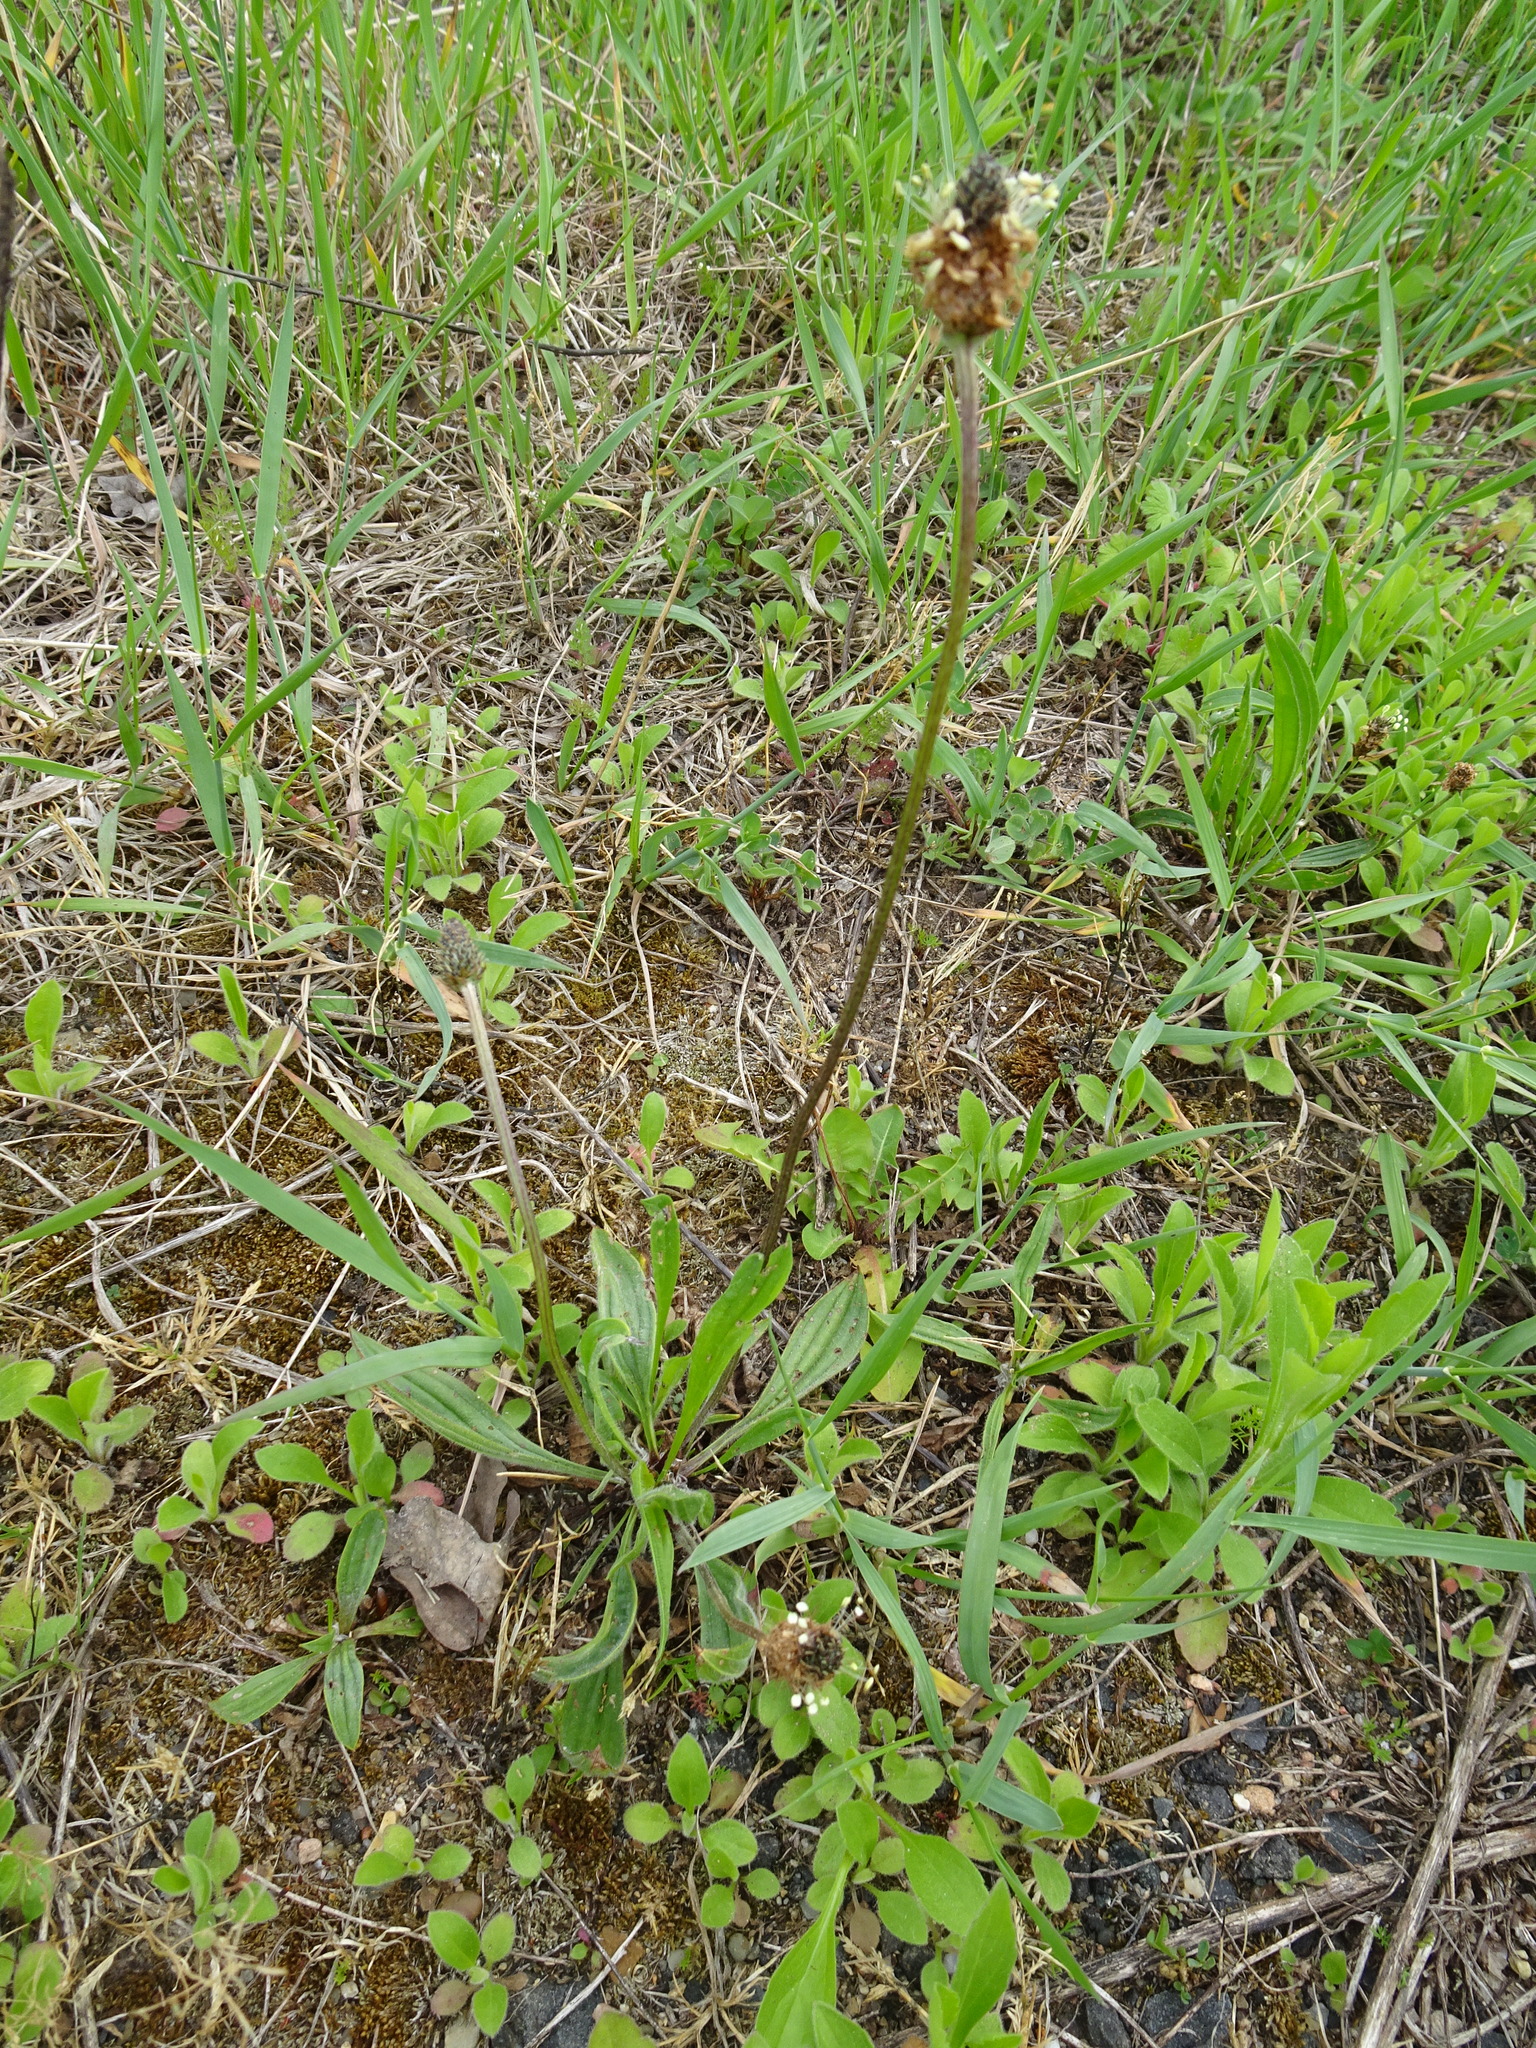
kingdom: Plantae
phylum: Tracheophyta
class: Magnoliopsida
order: Lamiales
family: Plantaginaceae
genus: Plantago
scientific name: Plantago lanceolata
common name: Ribwort plantain
